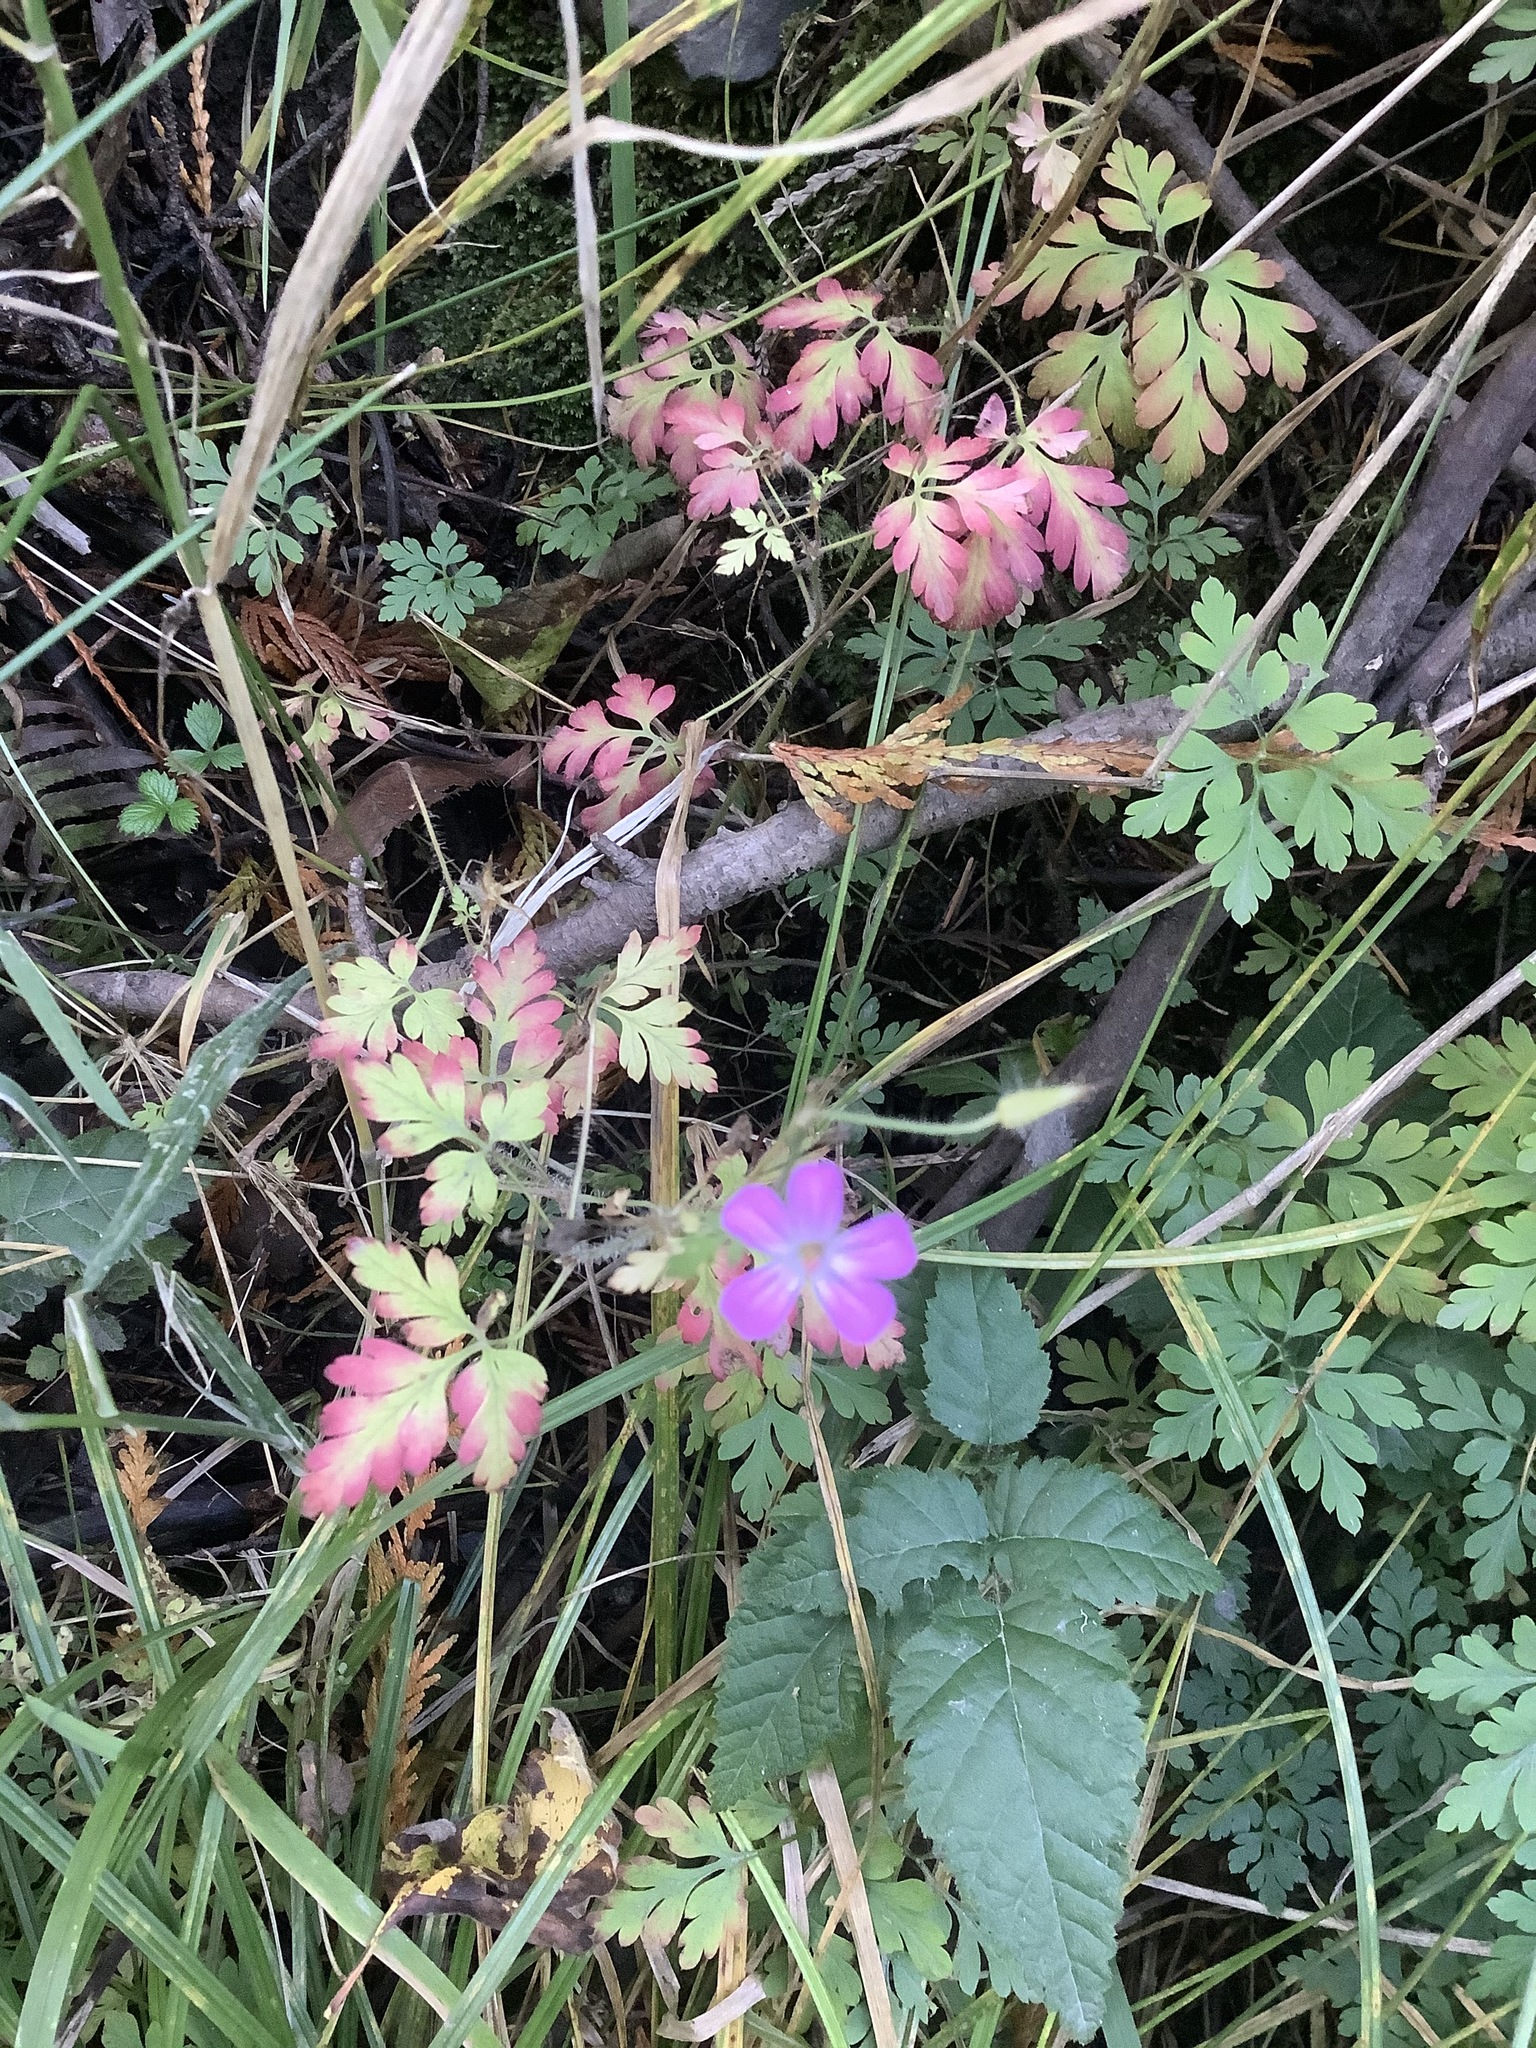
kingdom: Plantae
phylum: Tracheophyta
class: Magnoliopsida
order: Geraniales
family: Geraniaceae
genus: Geranium
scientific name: Geranium robertianum
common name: Herb-robert
